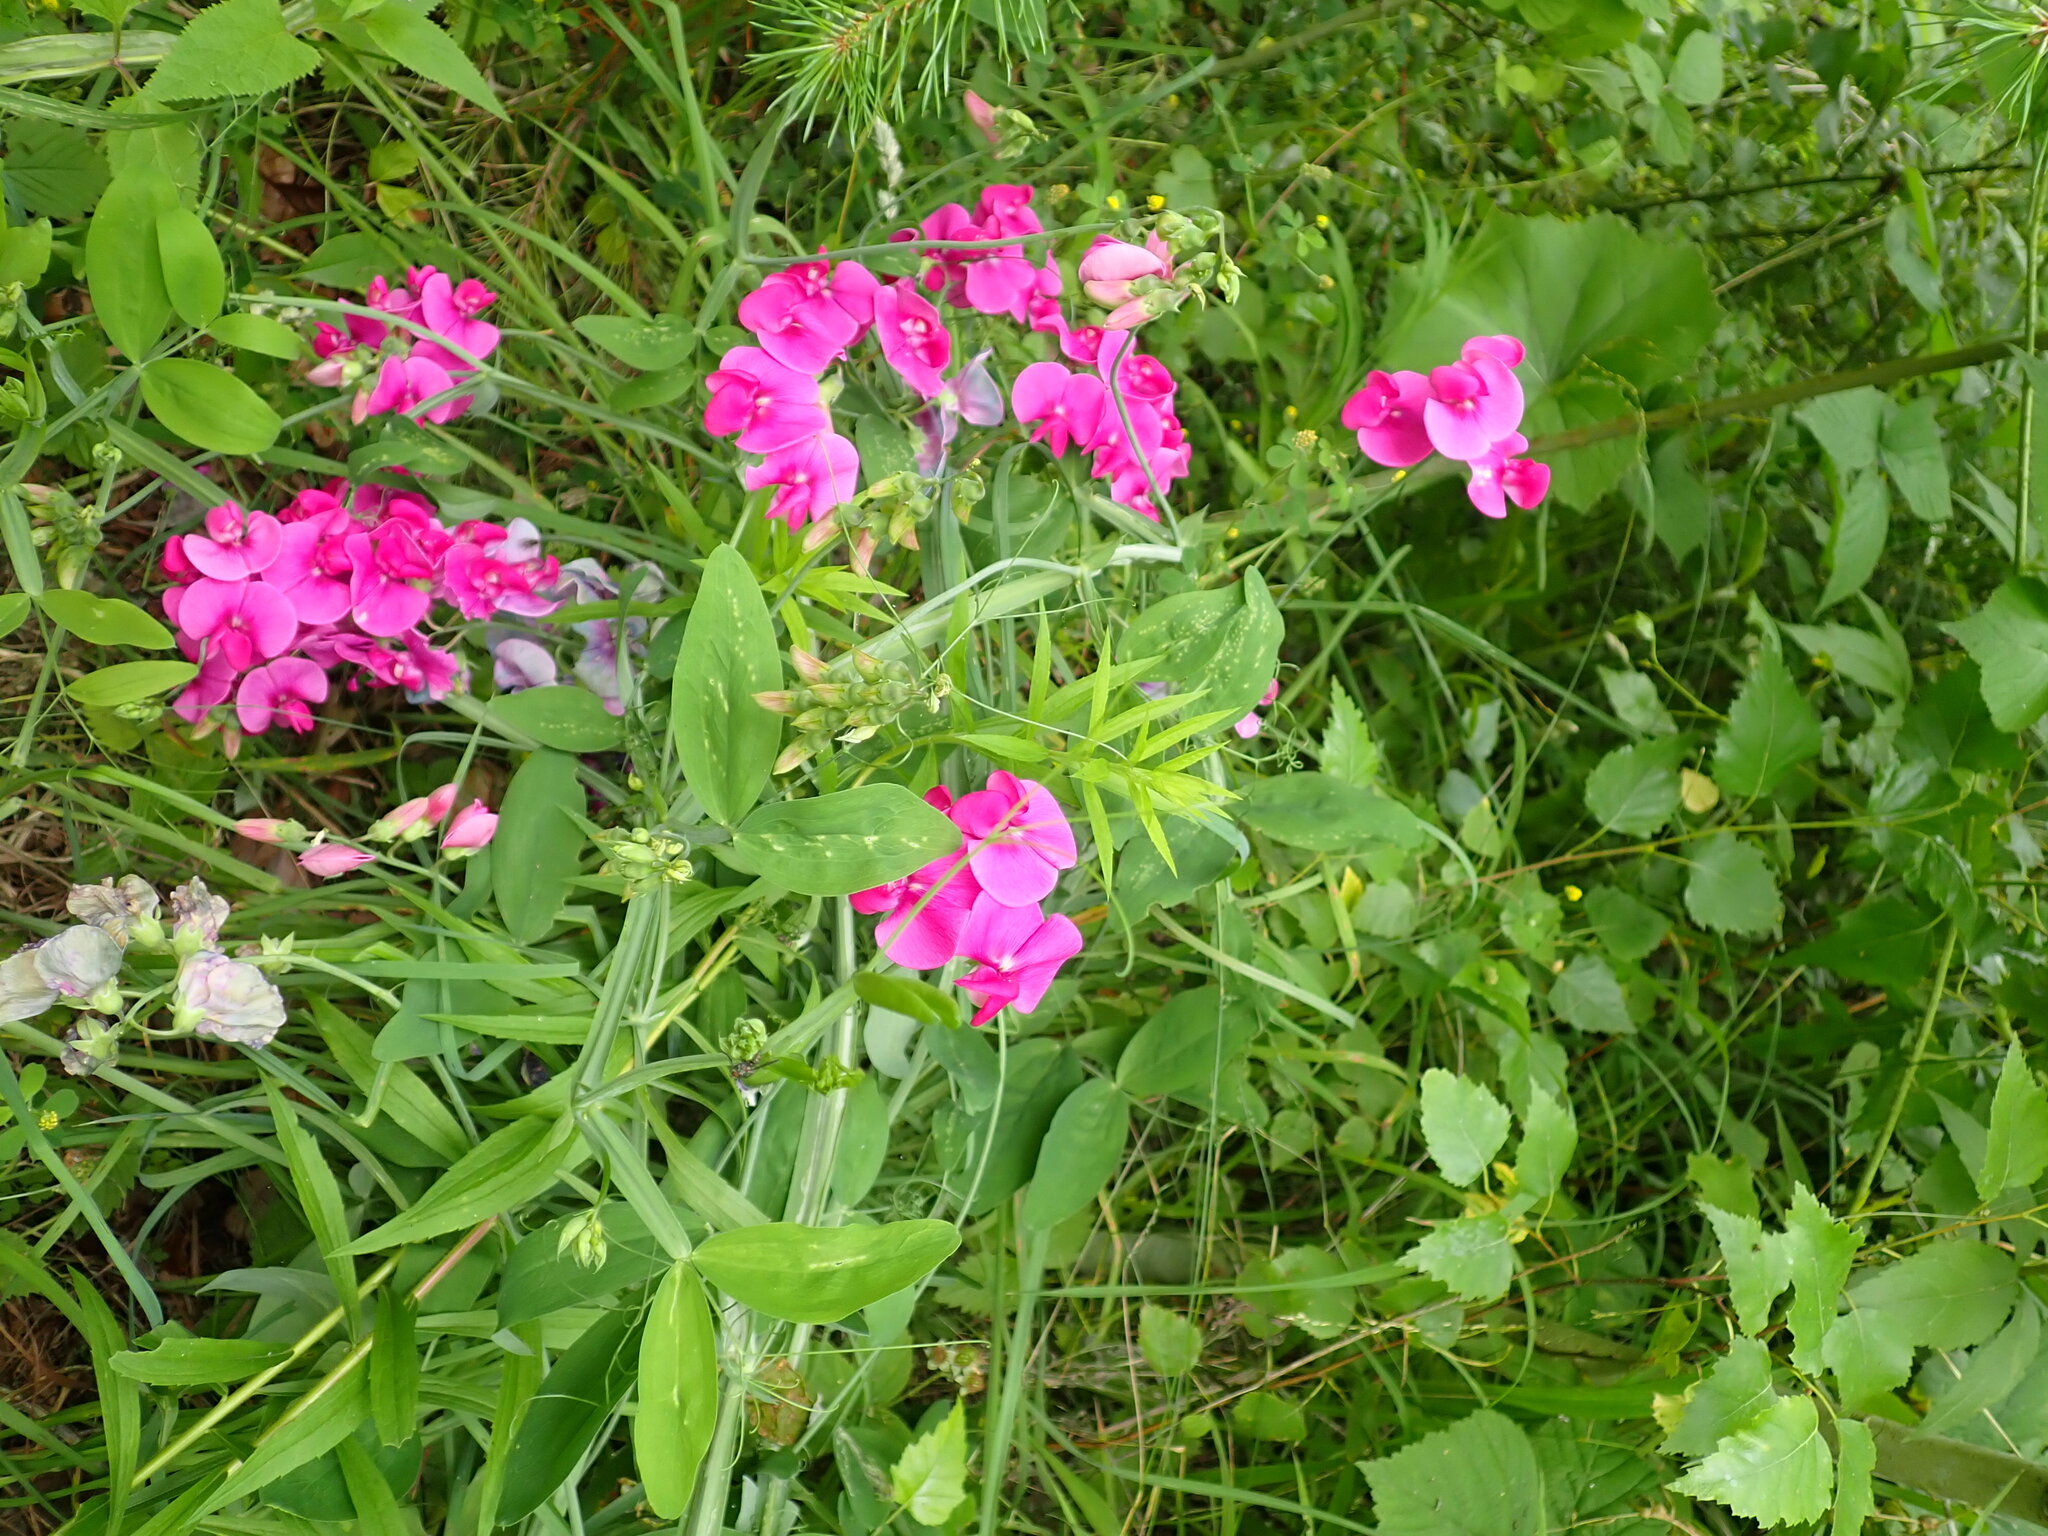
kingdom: Plantae
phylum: Tracheophyta
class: Magnoliopsida
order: Fabales
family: Fabaceae
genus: Lathyrus
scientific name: Lathyrus latifolius
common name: Perennial pea
